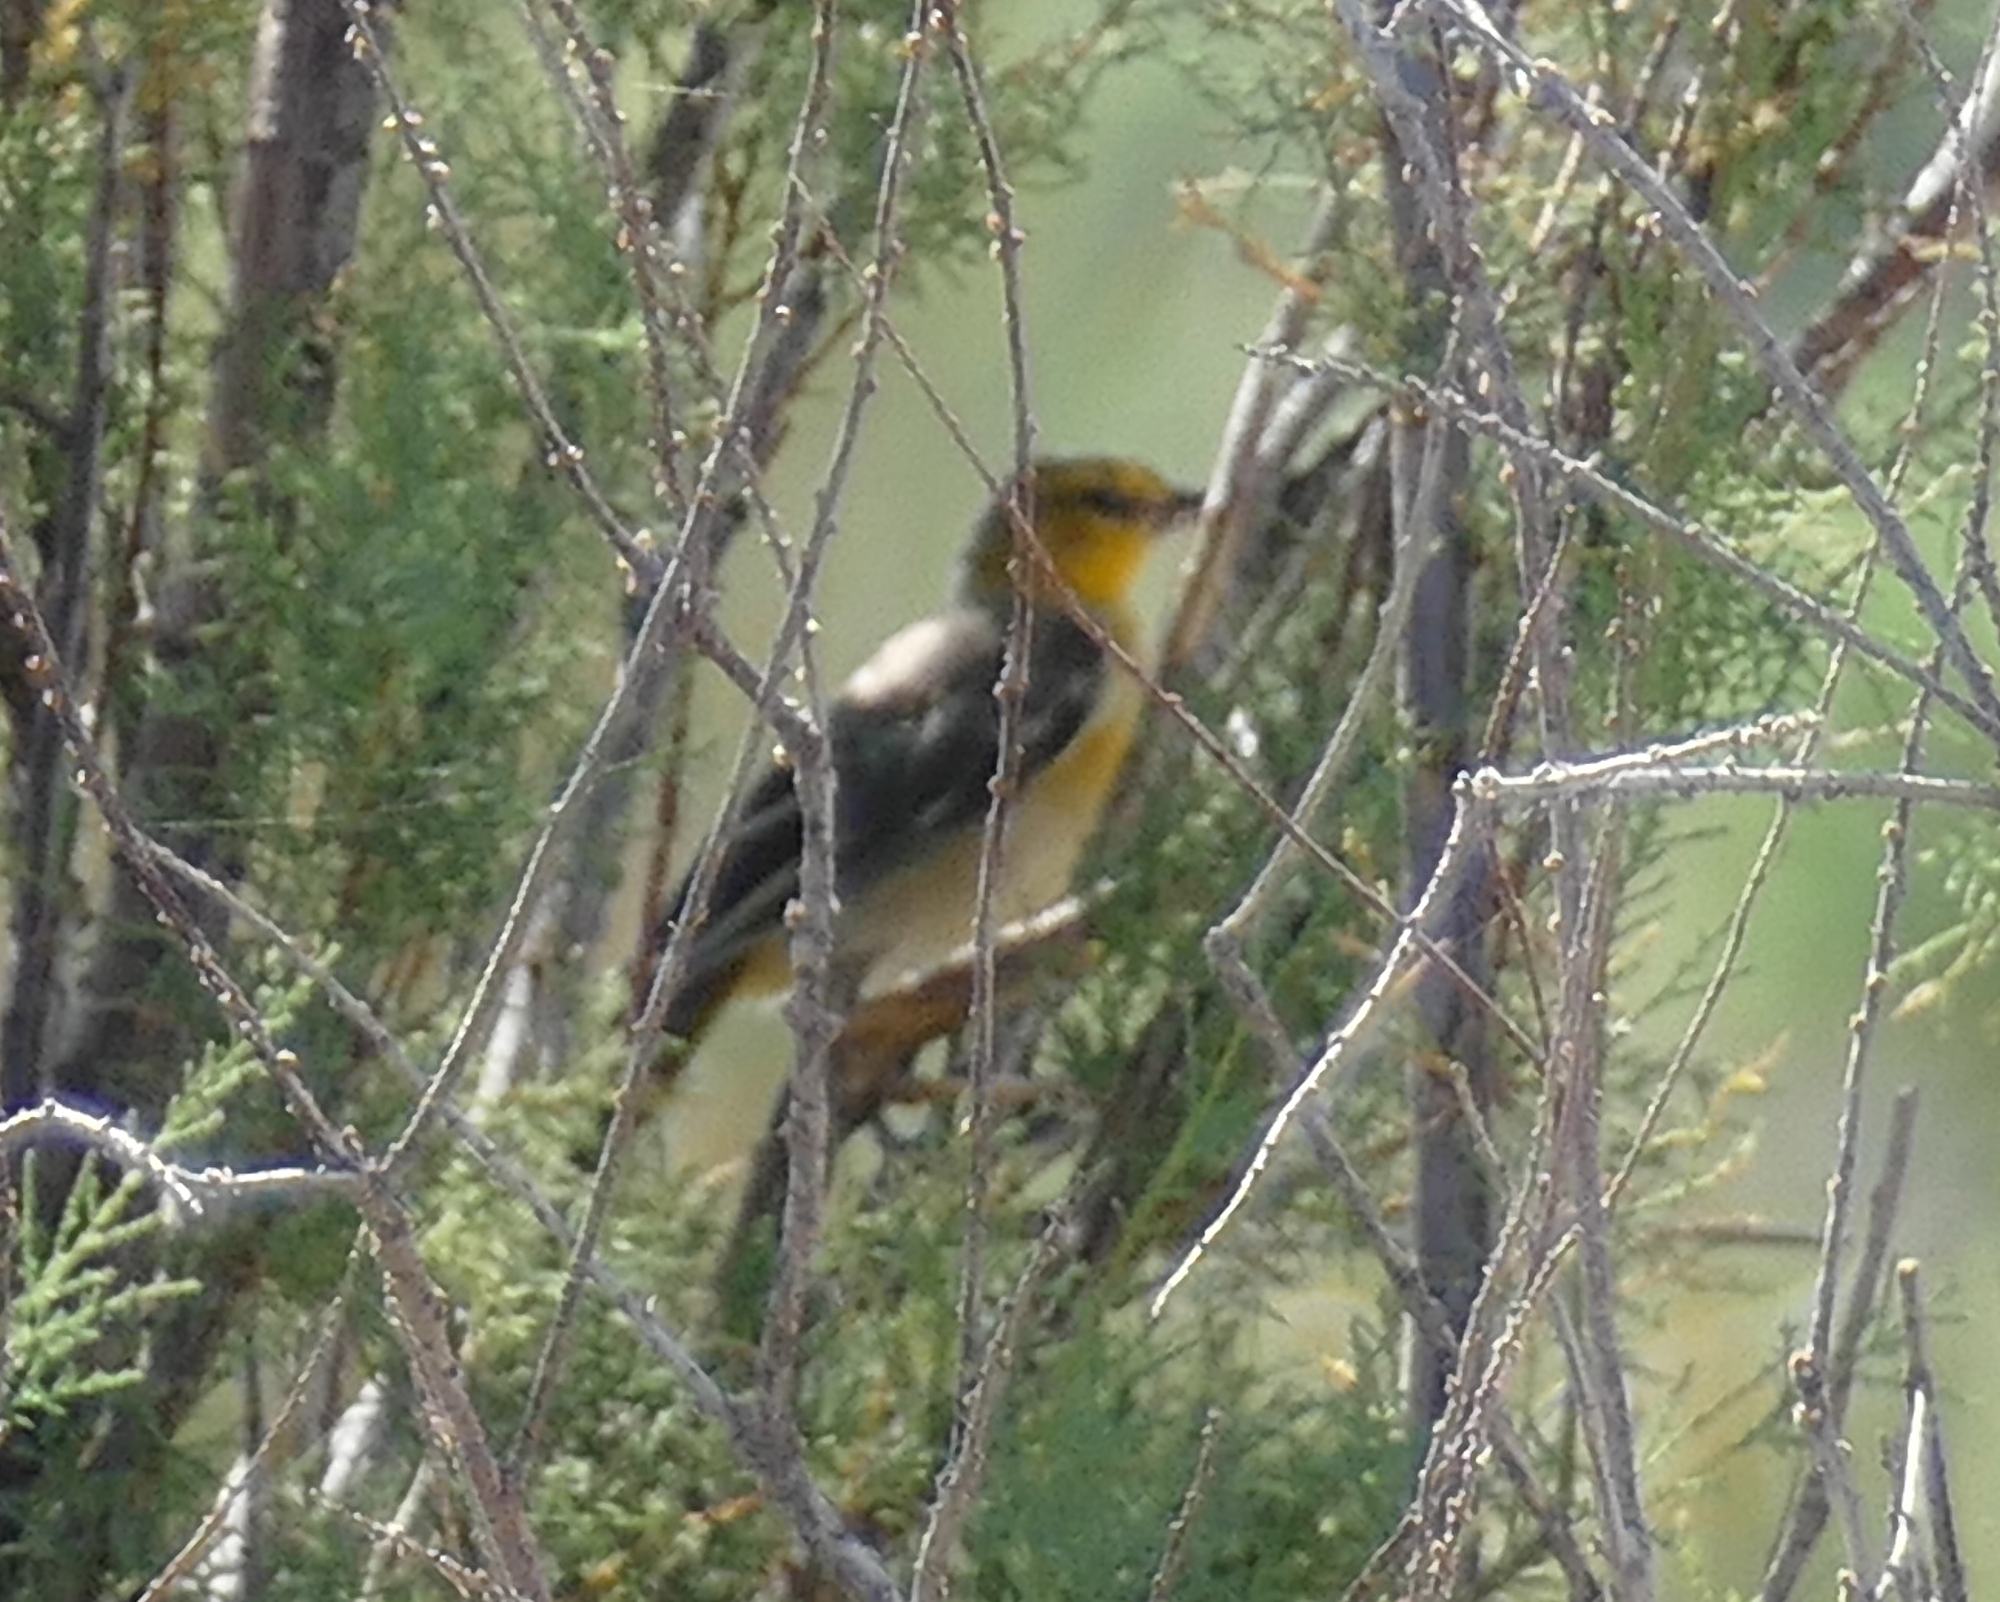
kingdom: Animalia
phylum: Chordata
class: Aves
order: Passeriformes
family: Icteridae
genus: Icterus
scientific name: Icterus bullockii
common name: Bullock's oriole
